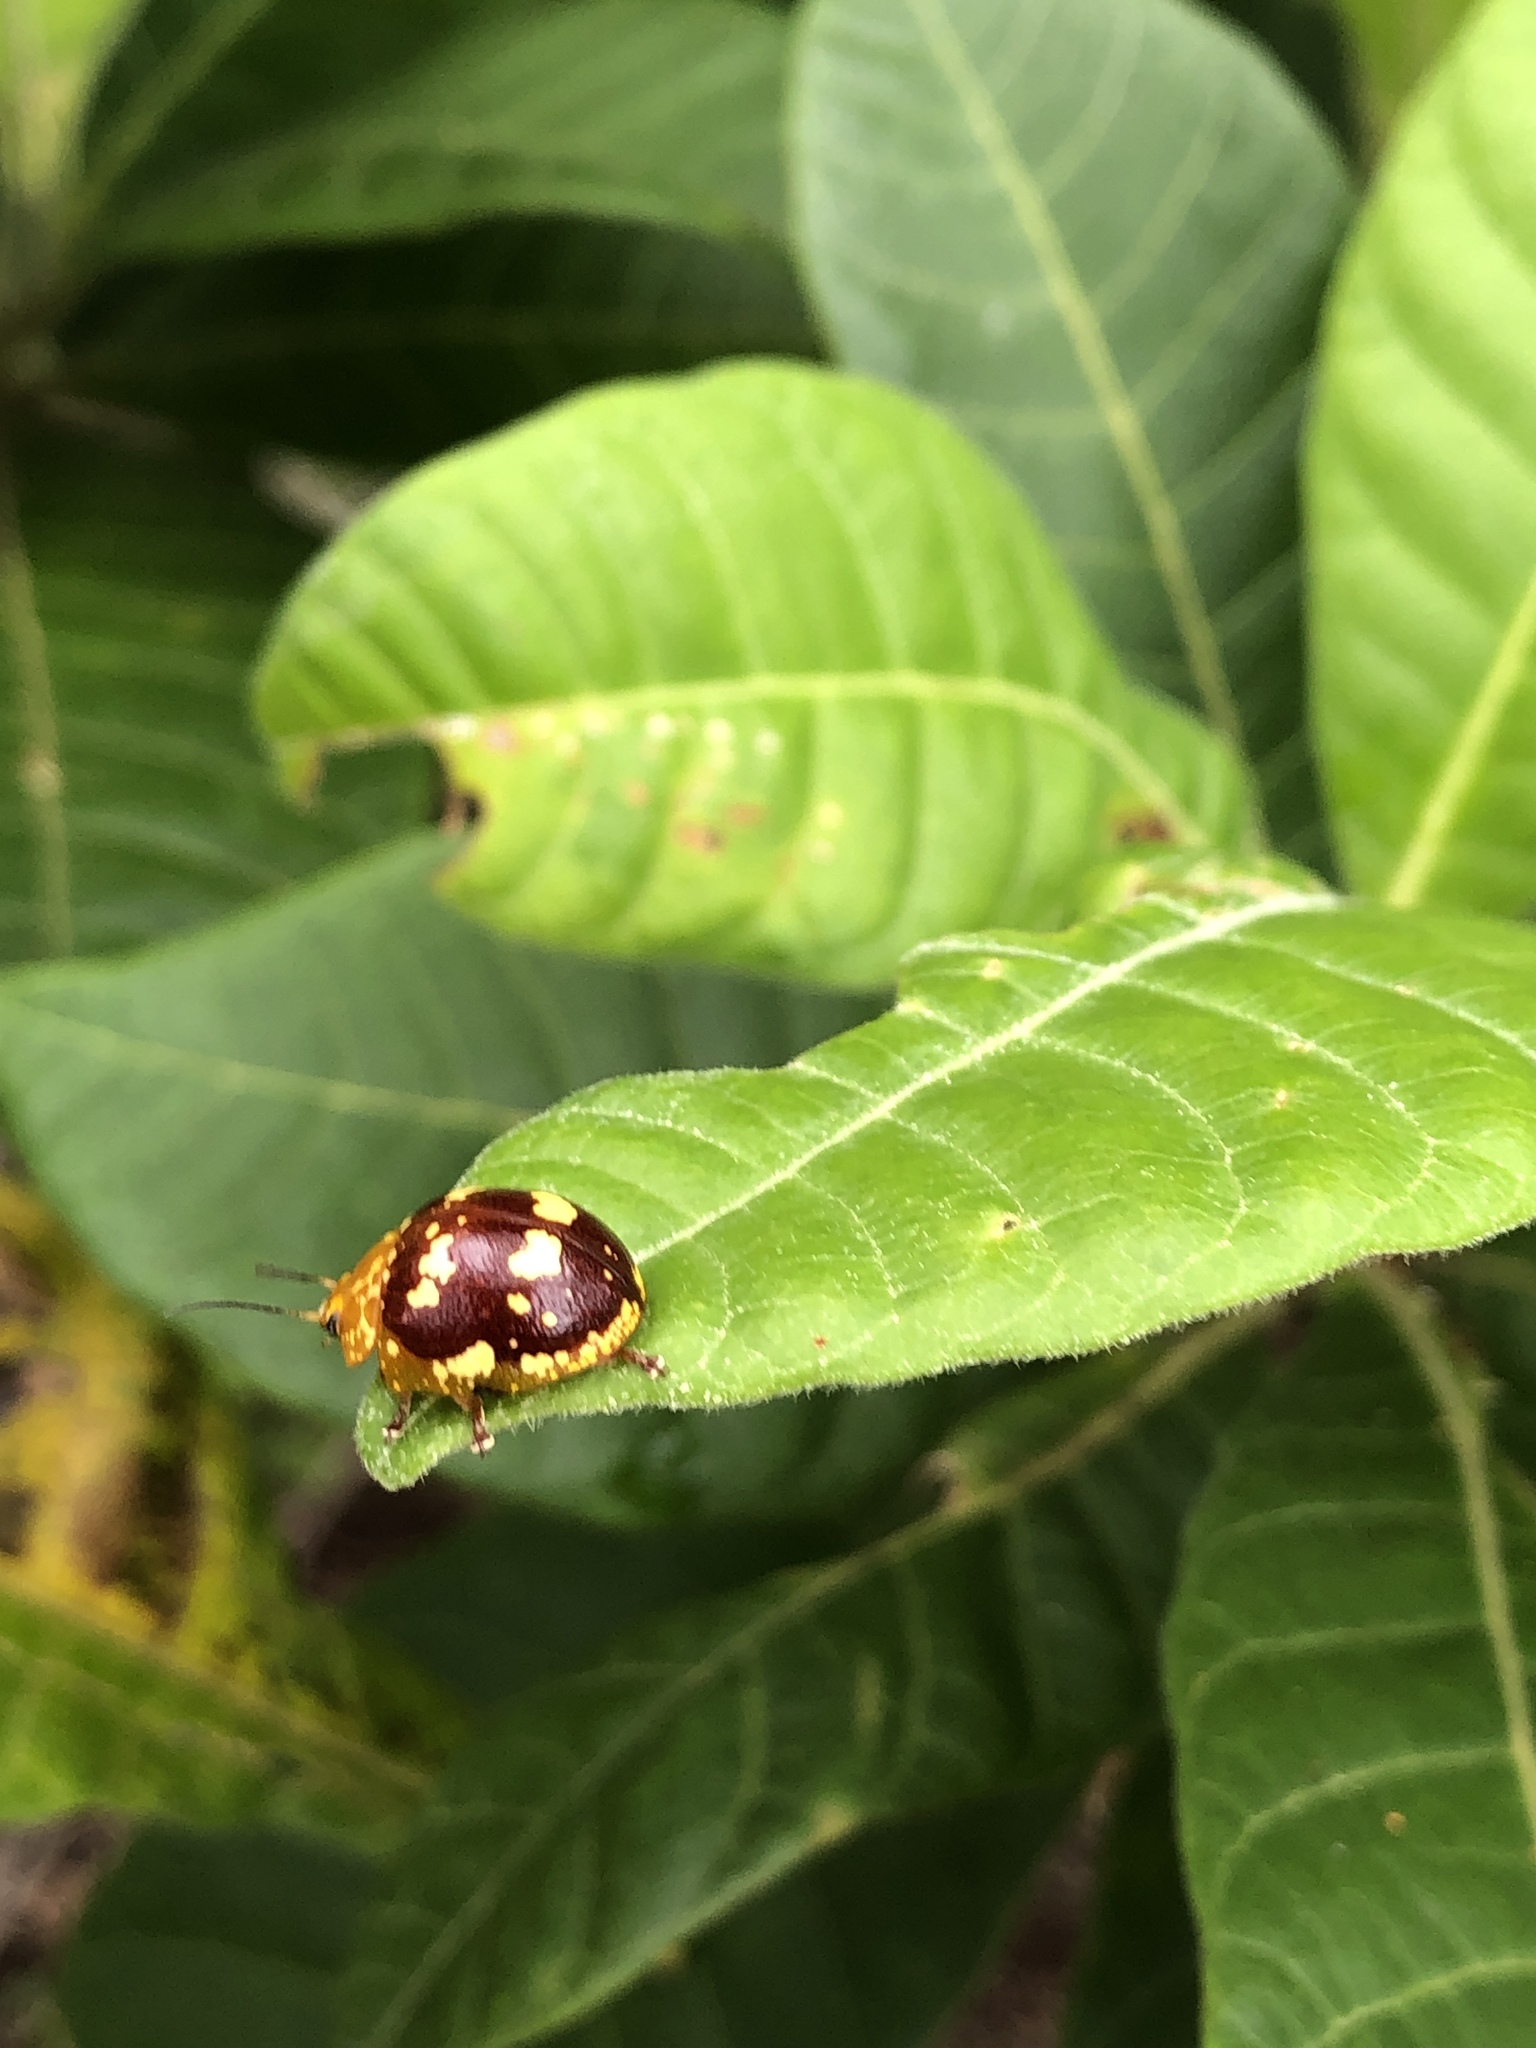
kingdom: Animalia
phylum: Arthropoda
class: Insecta
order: Coleoptera
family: Chrysomelidae
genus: Paropsis
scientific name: Paropsis maculata
